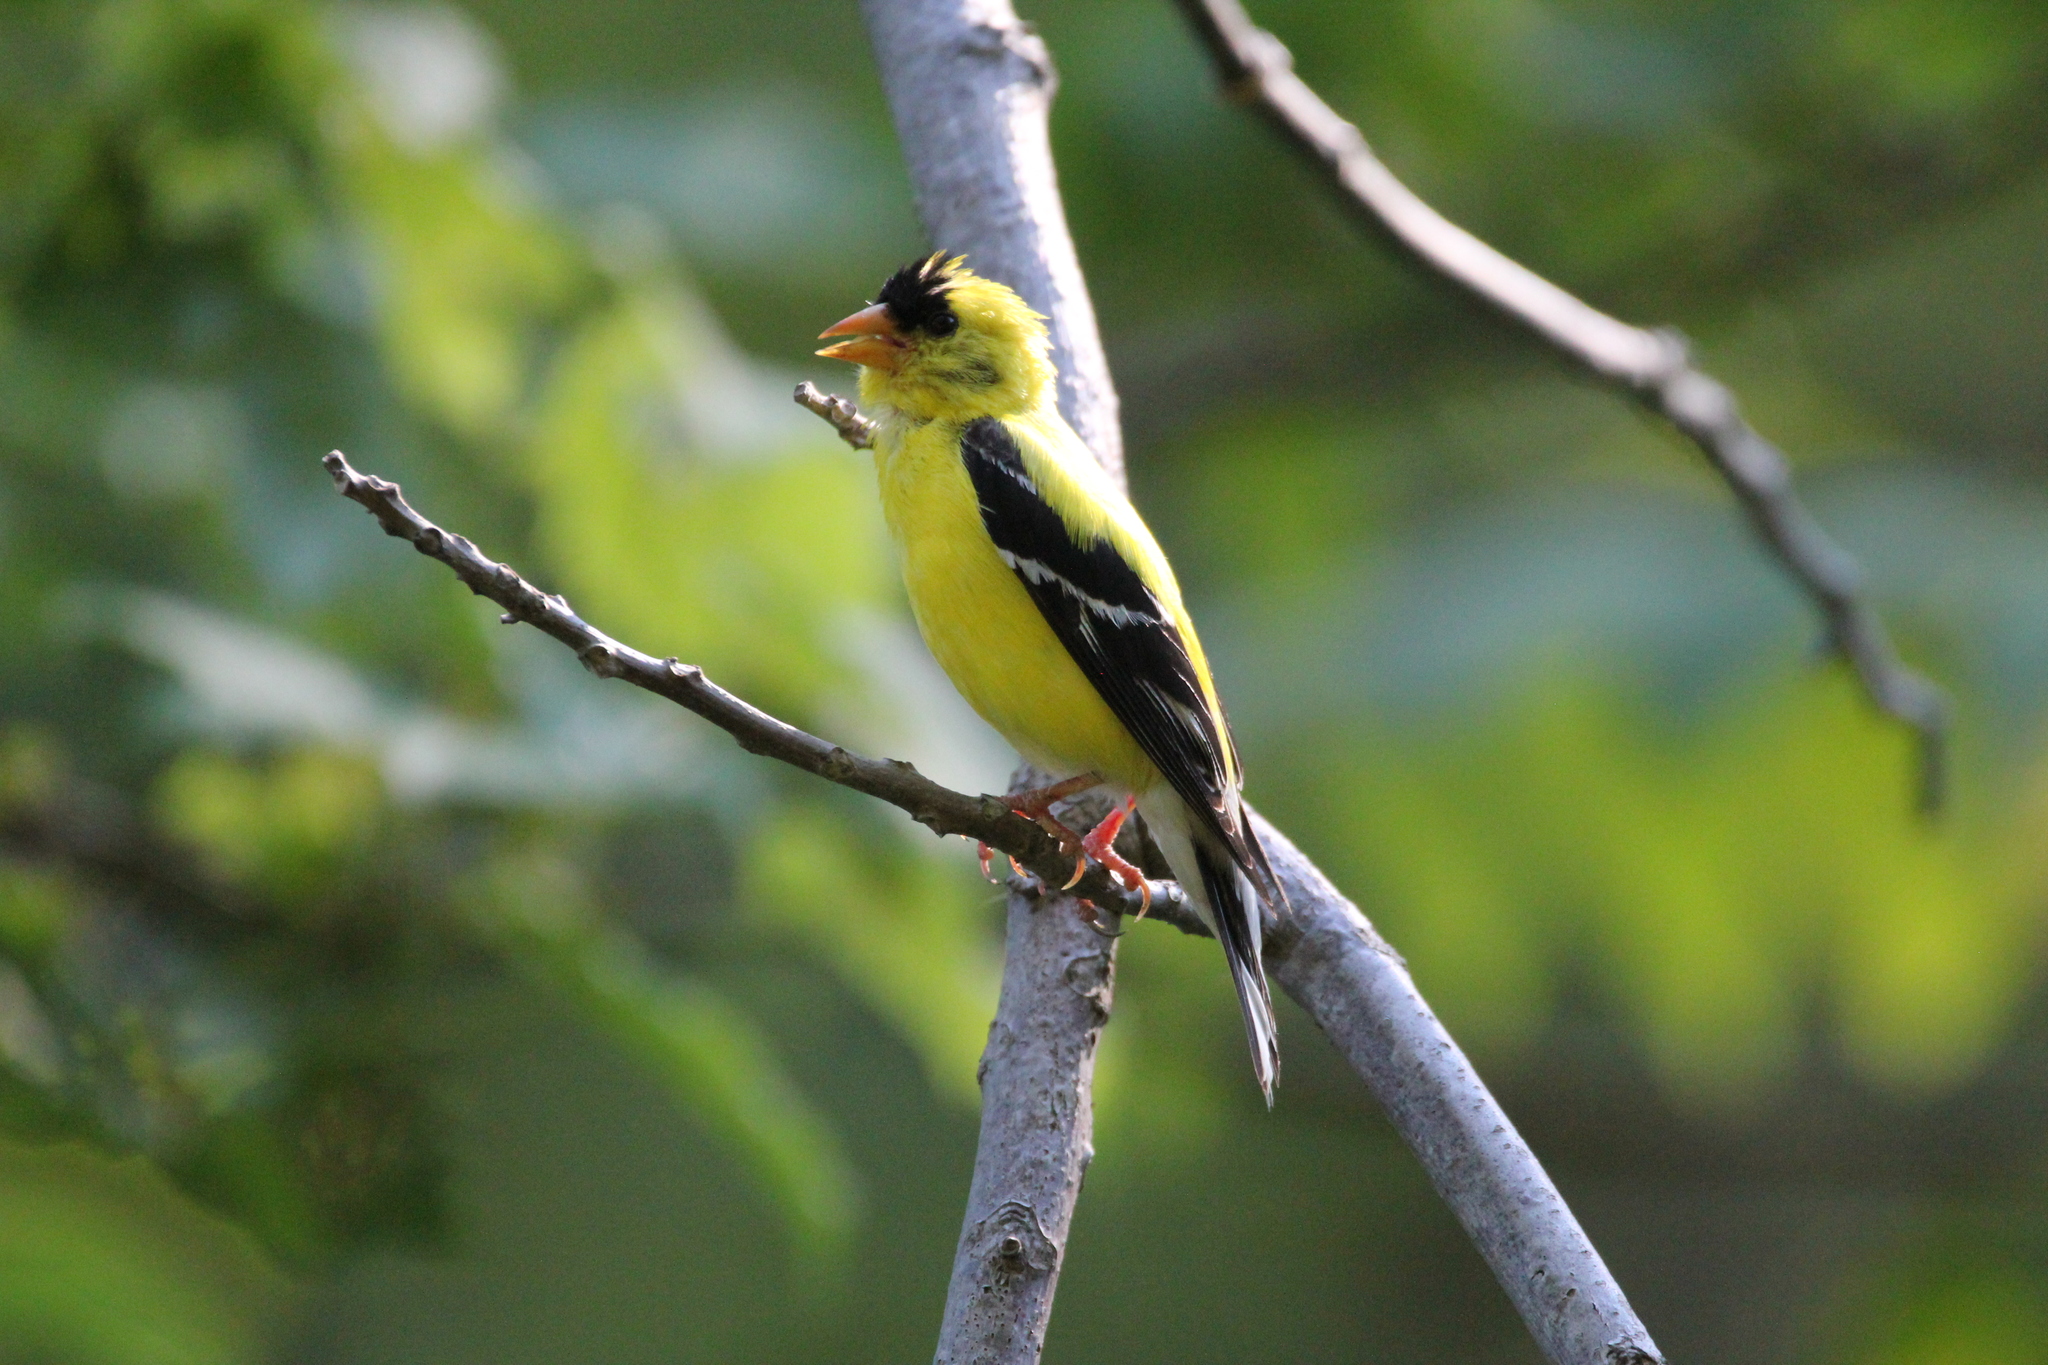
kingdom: Animalia
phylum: Chordata
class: Aves
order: Passeriformes
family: Fringillidae
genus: Spinus
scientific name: Spinus tristis
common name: American goldfinch
